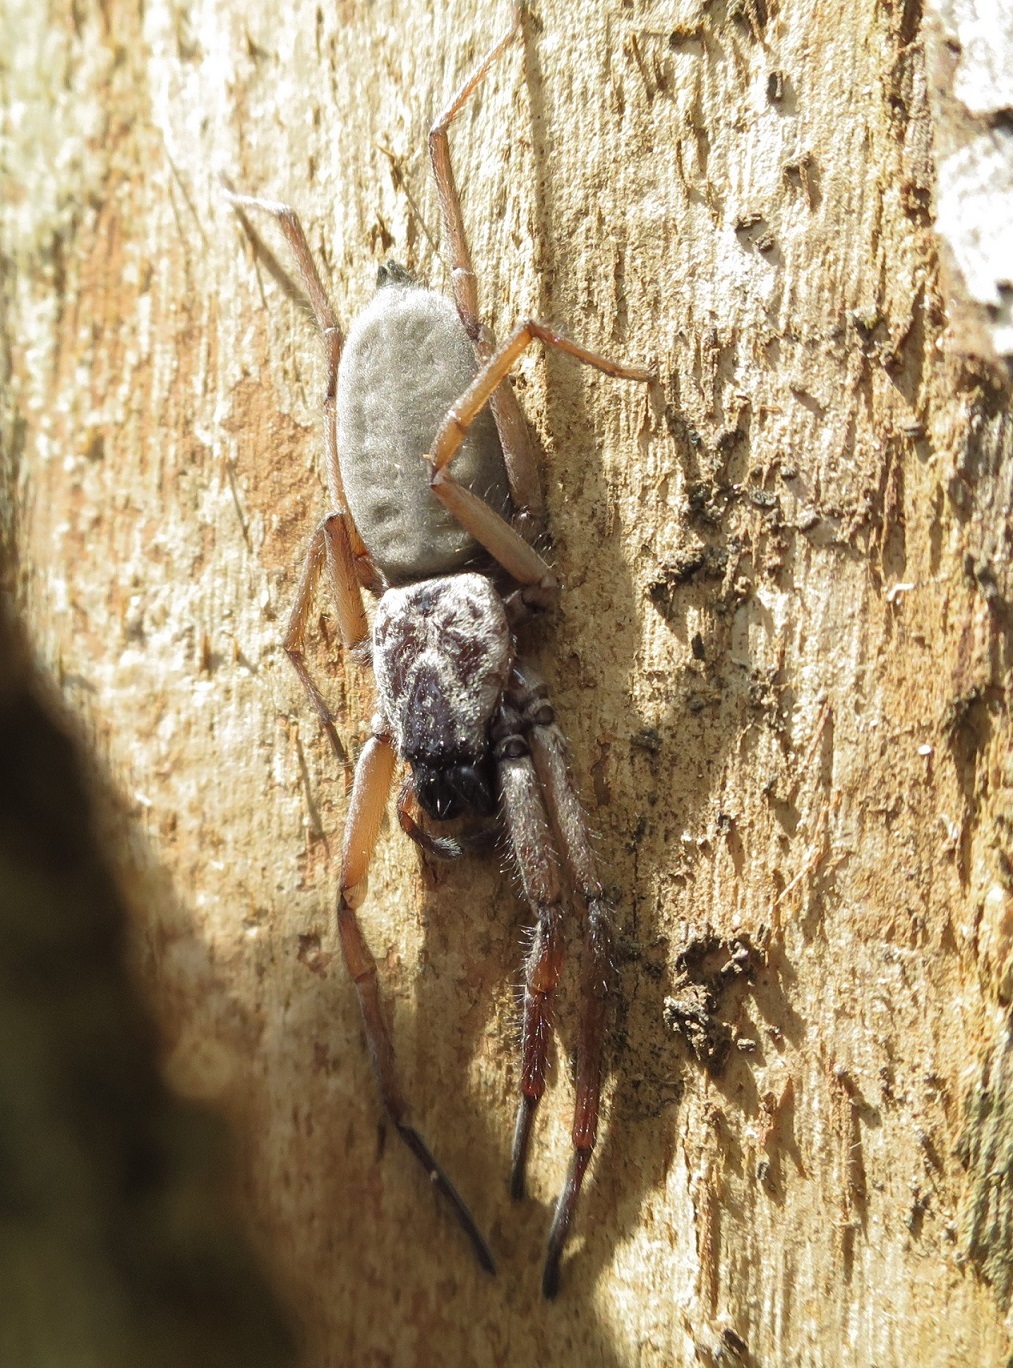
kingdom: Animalia
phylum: Arthropoda
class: Arachnida
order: Araneae
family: Trochanteriidae
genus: Hemicloea
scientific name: Hemicloea rogenhoferi
